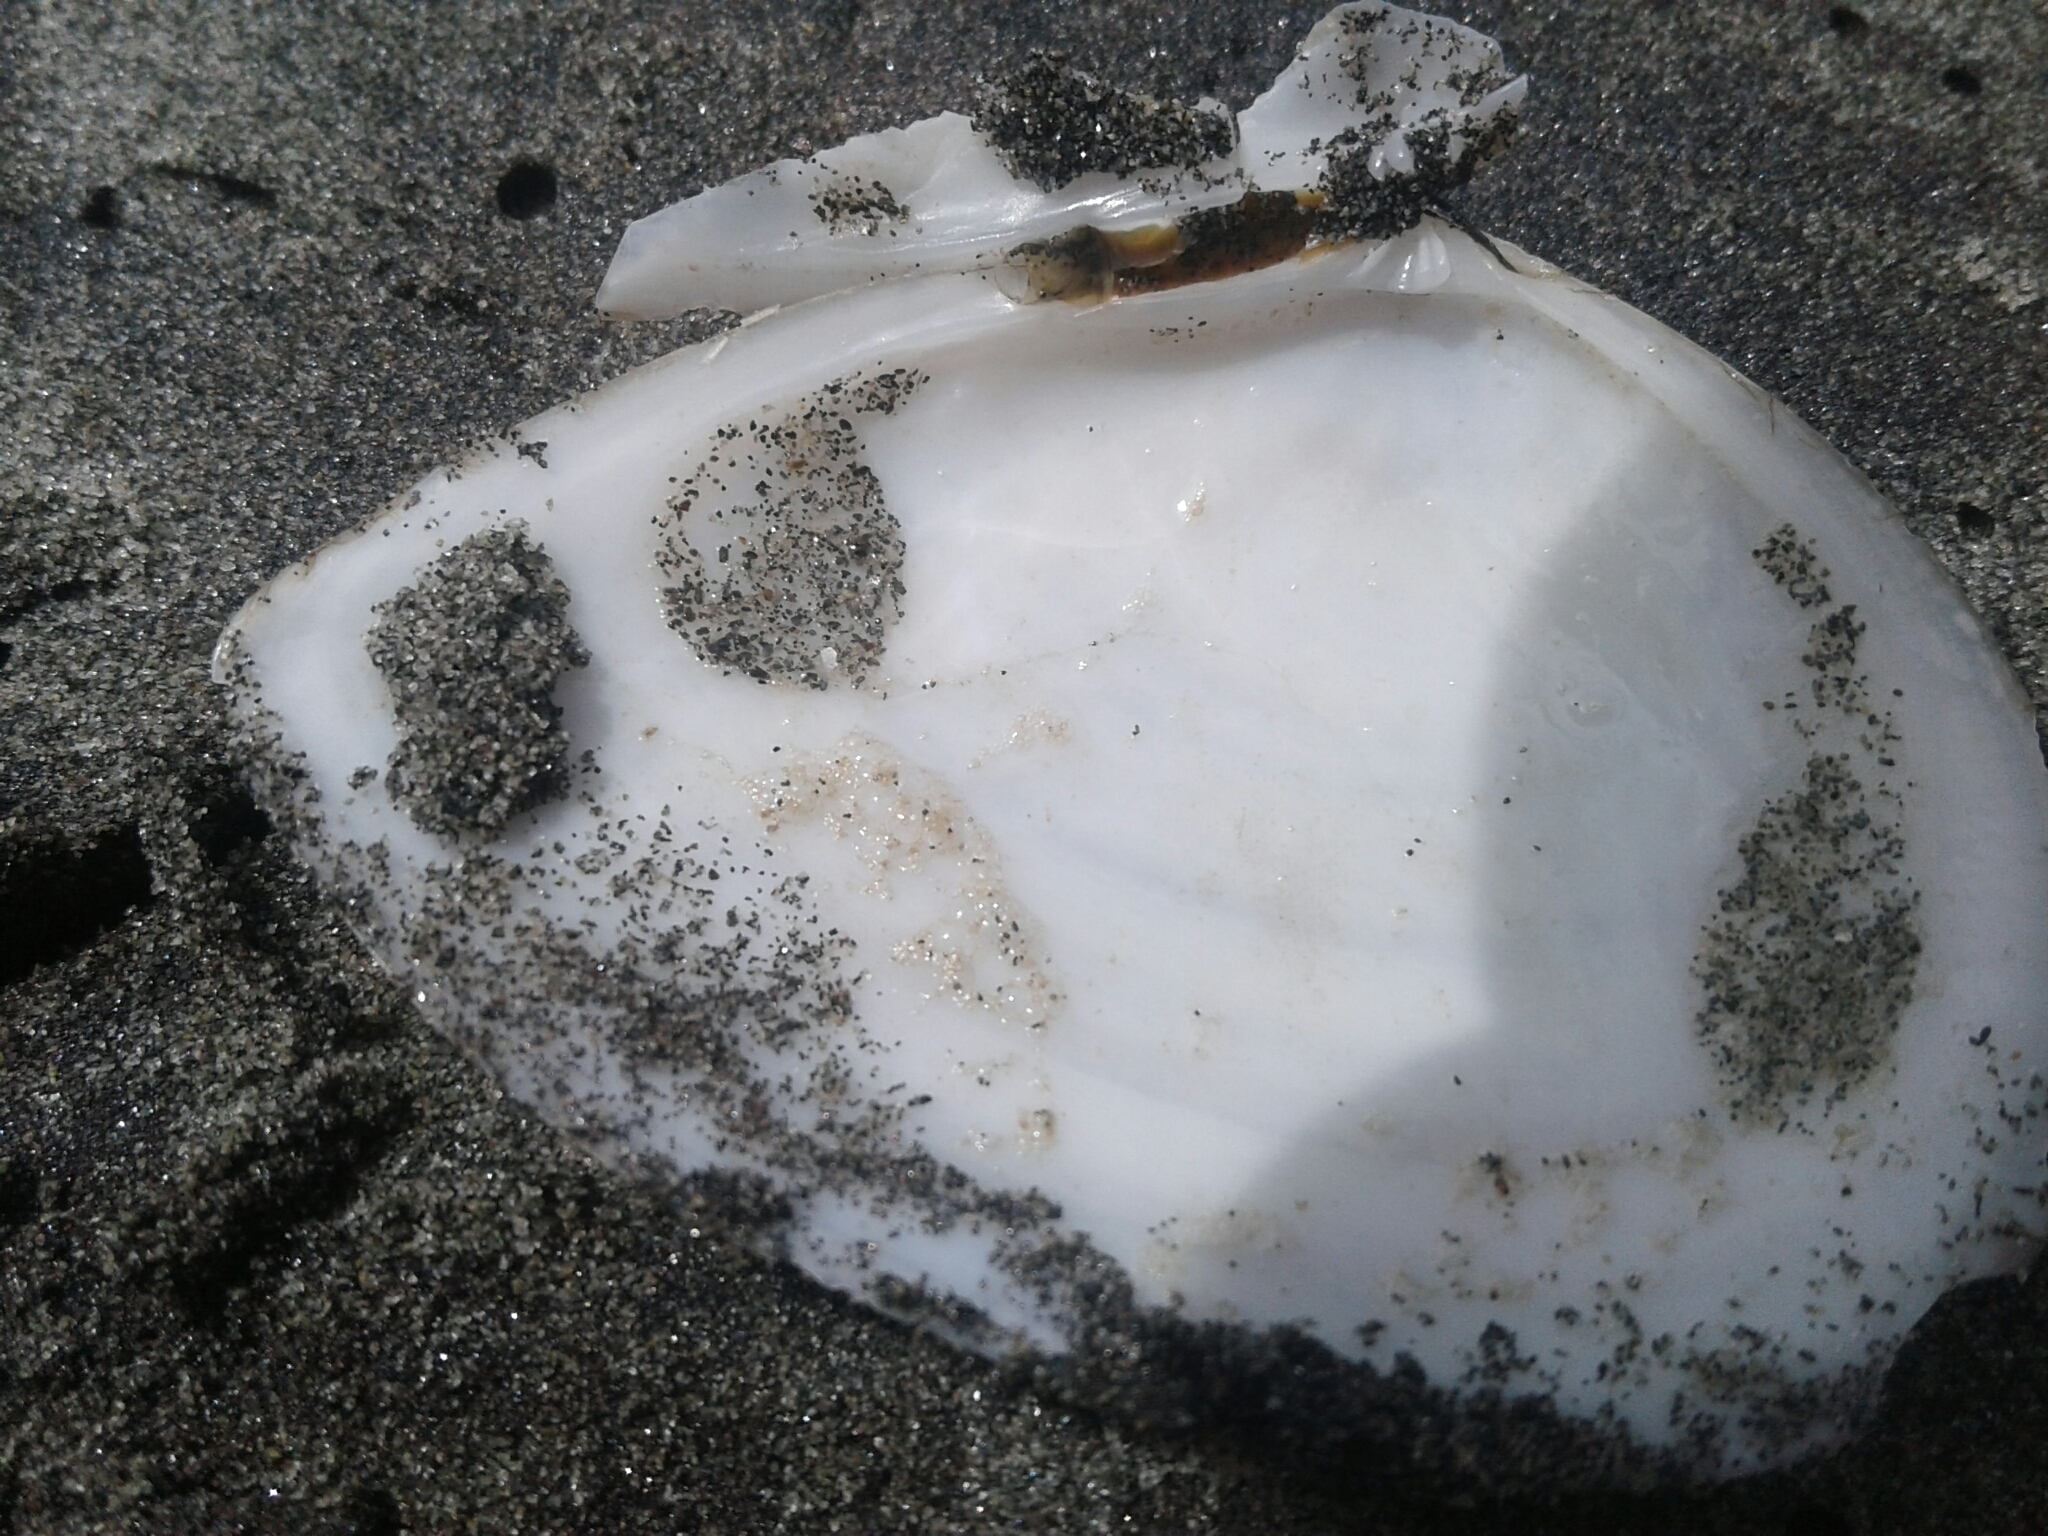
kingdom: Animalia
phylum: Mollusca
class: Bivalvia
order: Cardiida
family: Tellinidae
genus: Bartschicoma
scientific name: Bartschicoma gaimardi
